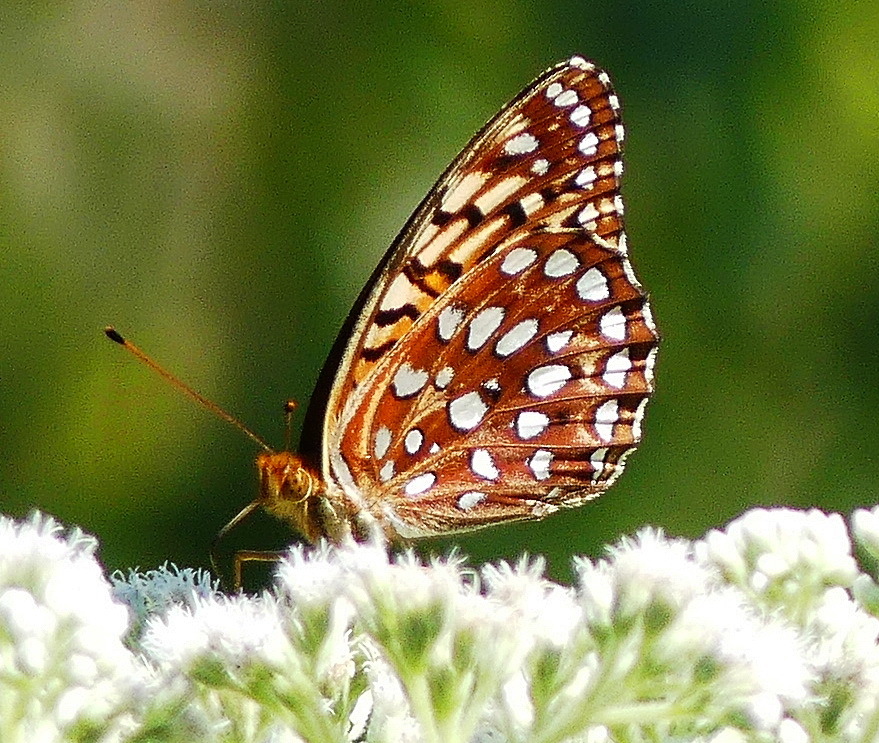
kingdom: Animalia
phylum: Arthropoda
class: Insecta
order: Lepidoptera
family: Nymphalidae
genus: Speyeria
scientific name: Speyeria aphrodite
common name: Aphrodite friitllary
